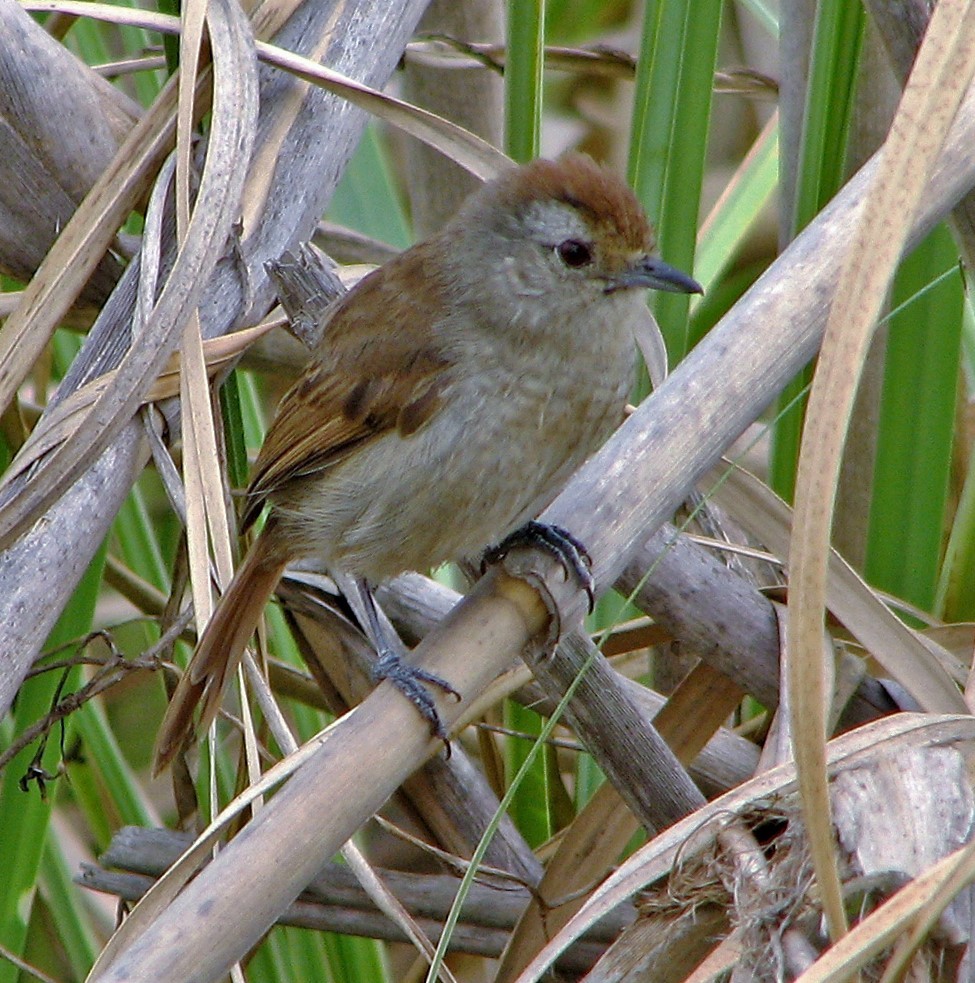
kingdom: Animalia
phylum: Chordata
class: Aves
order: Passeriformes
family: Thamnophilidae
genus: Thamnophilus
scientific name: Thamnophilus ruficapillus
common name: Rufous-capped antshrike
